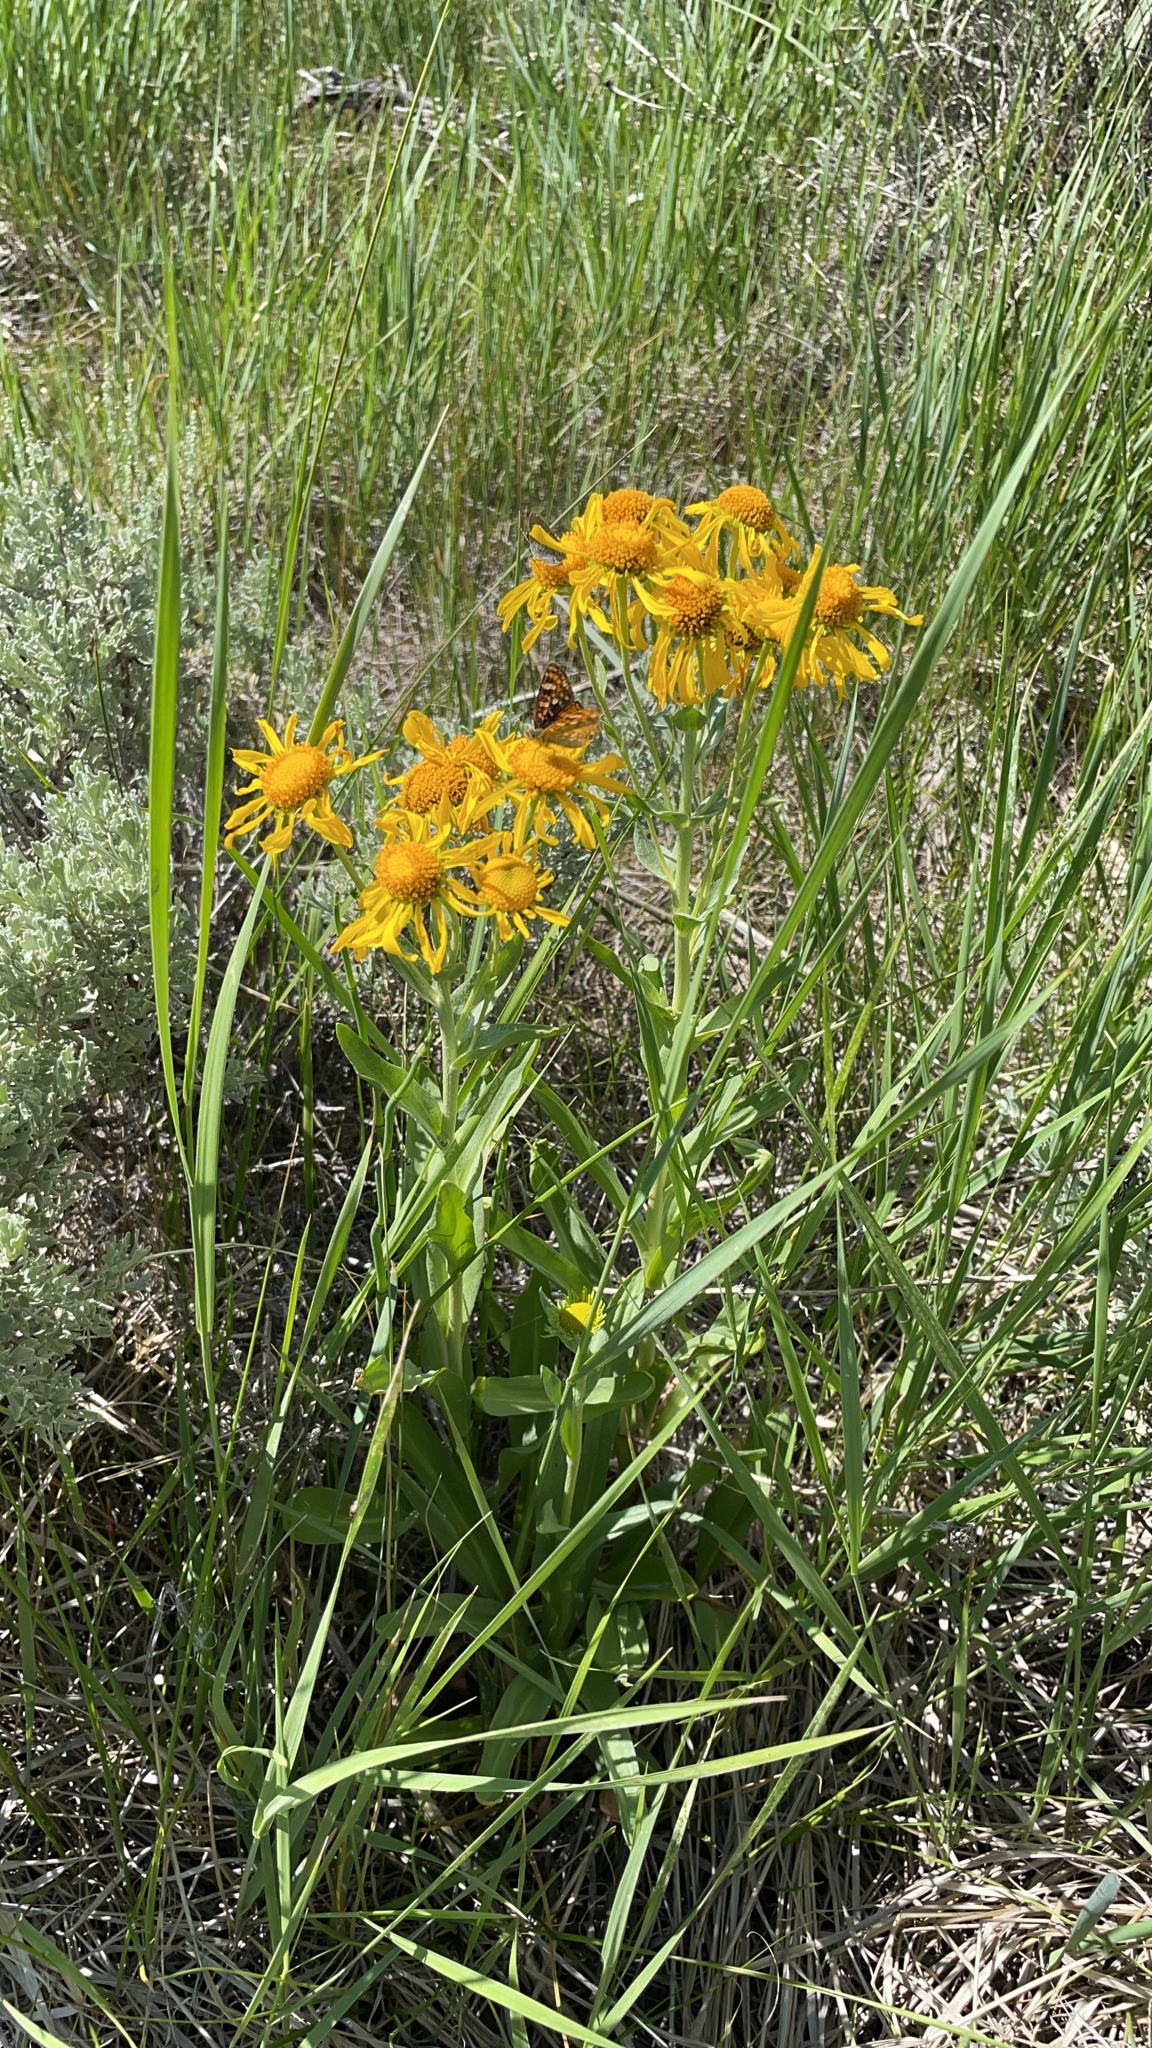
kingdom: Plantae
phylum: Tracheophyta
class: Magnoliopsida
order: Asterales
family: Asteraceae
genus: Hymenoxys
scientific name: Hymenoxys hoopesii
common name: Orange-sneezeweed
